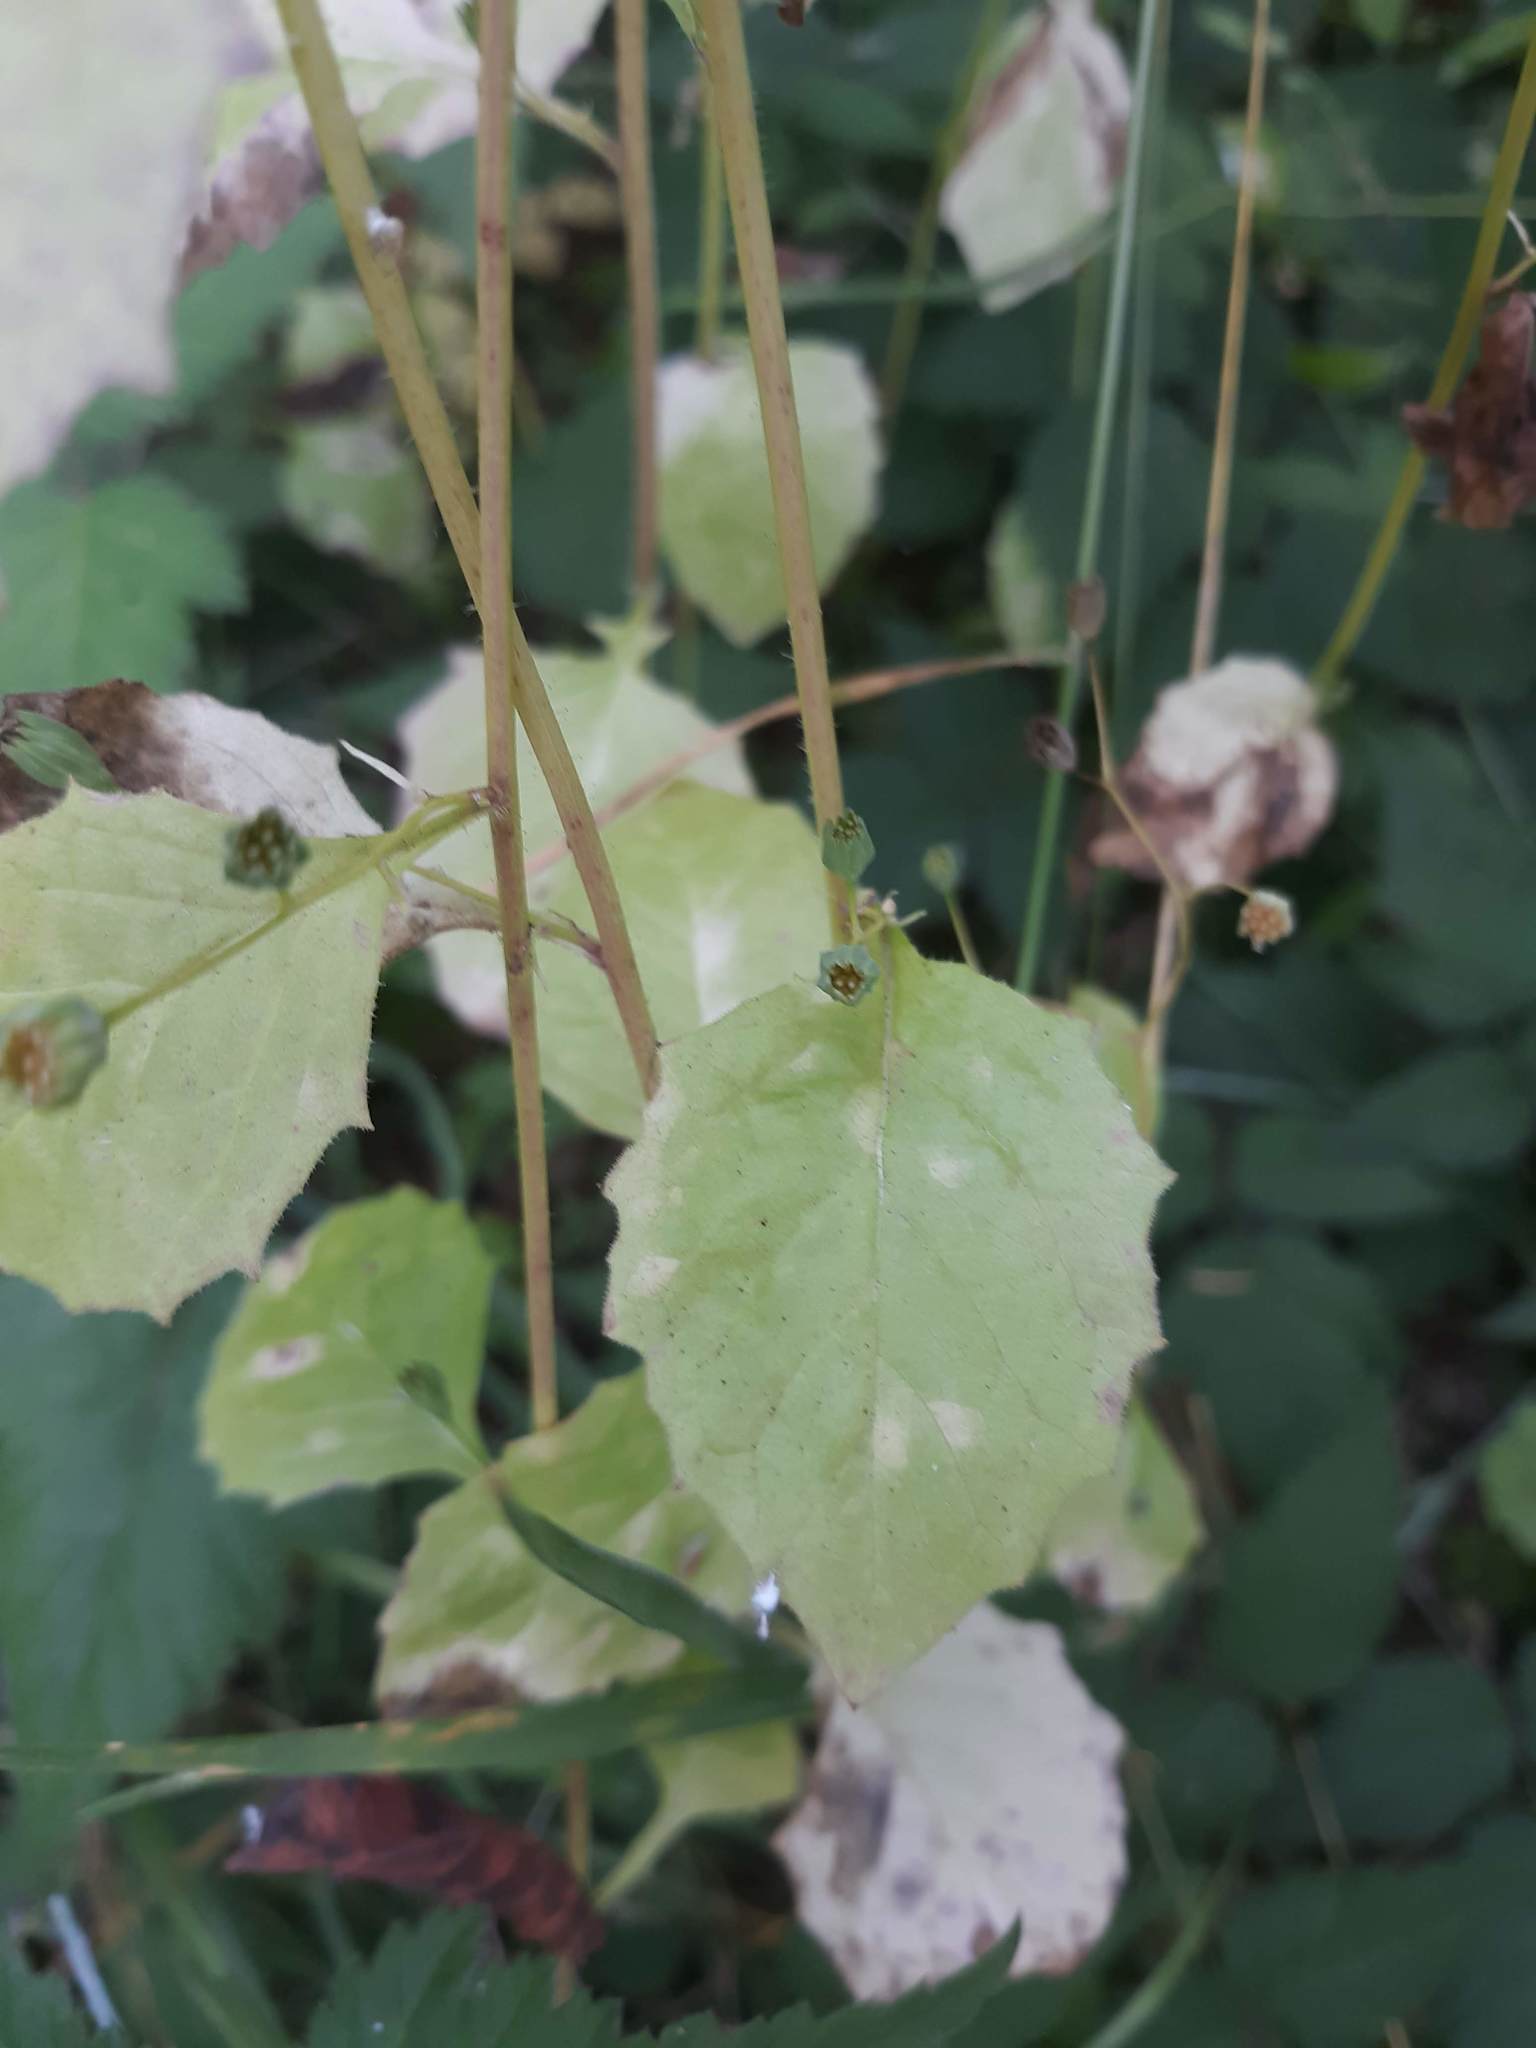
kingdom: Plantae
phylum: Tracheophyta
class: Magnoliopsida
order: Asterales
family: Asteraceae
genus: Lapsana
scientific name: Lapsana communis
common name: Nipplewort
